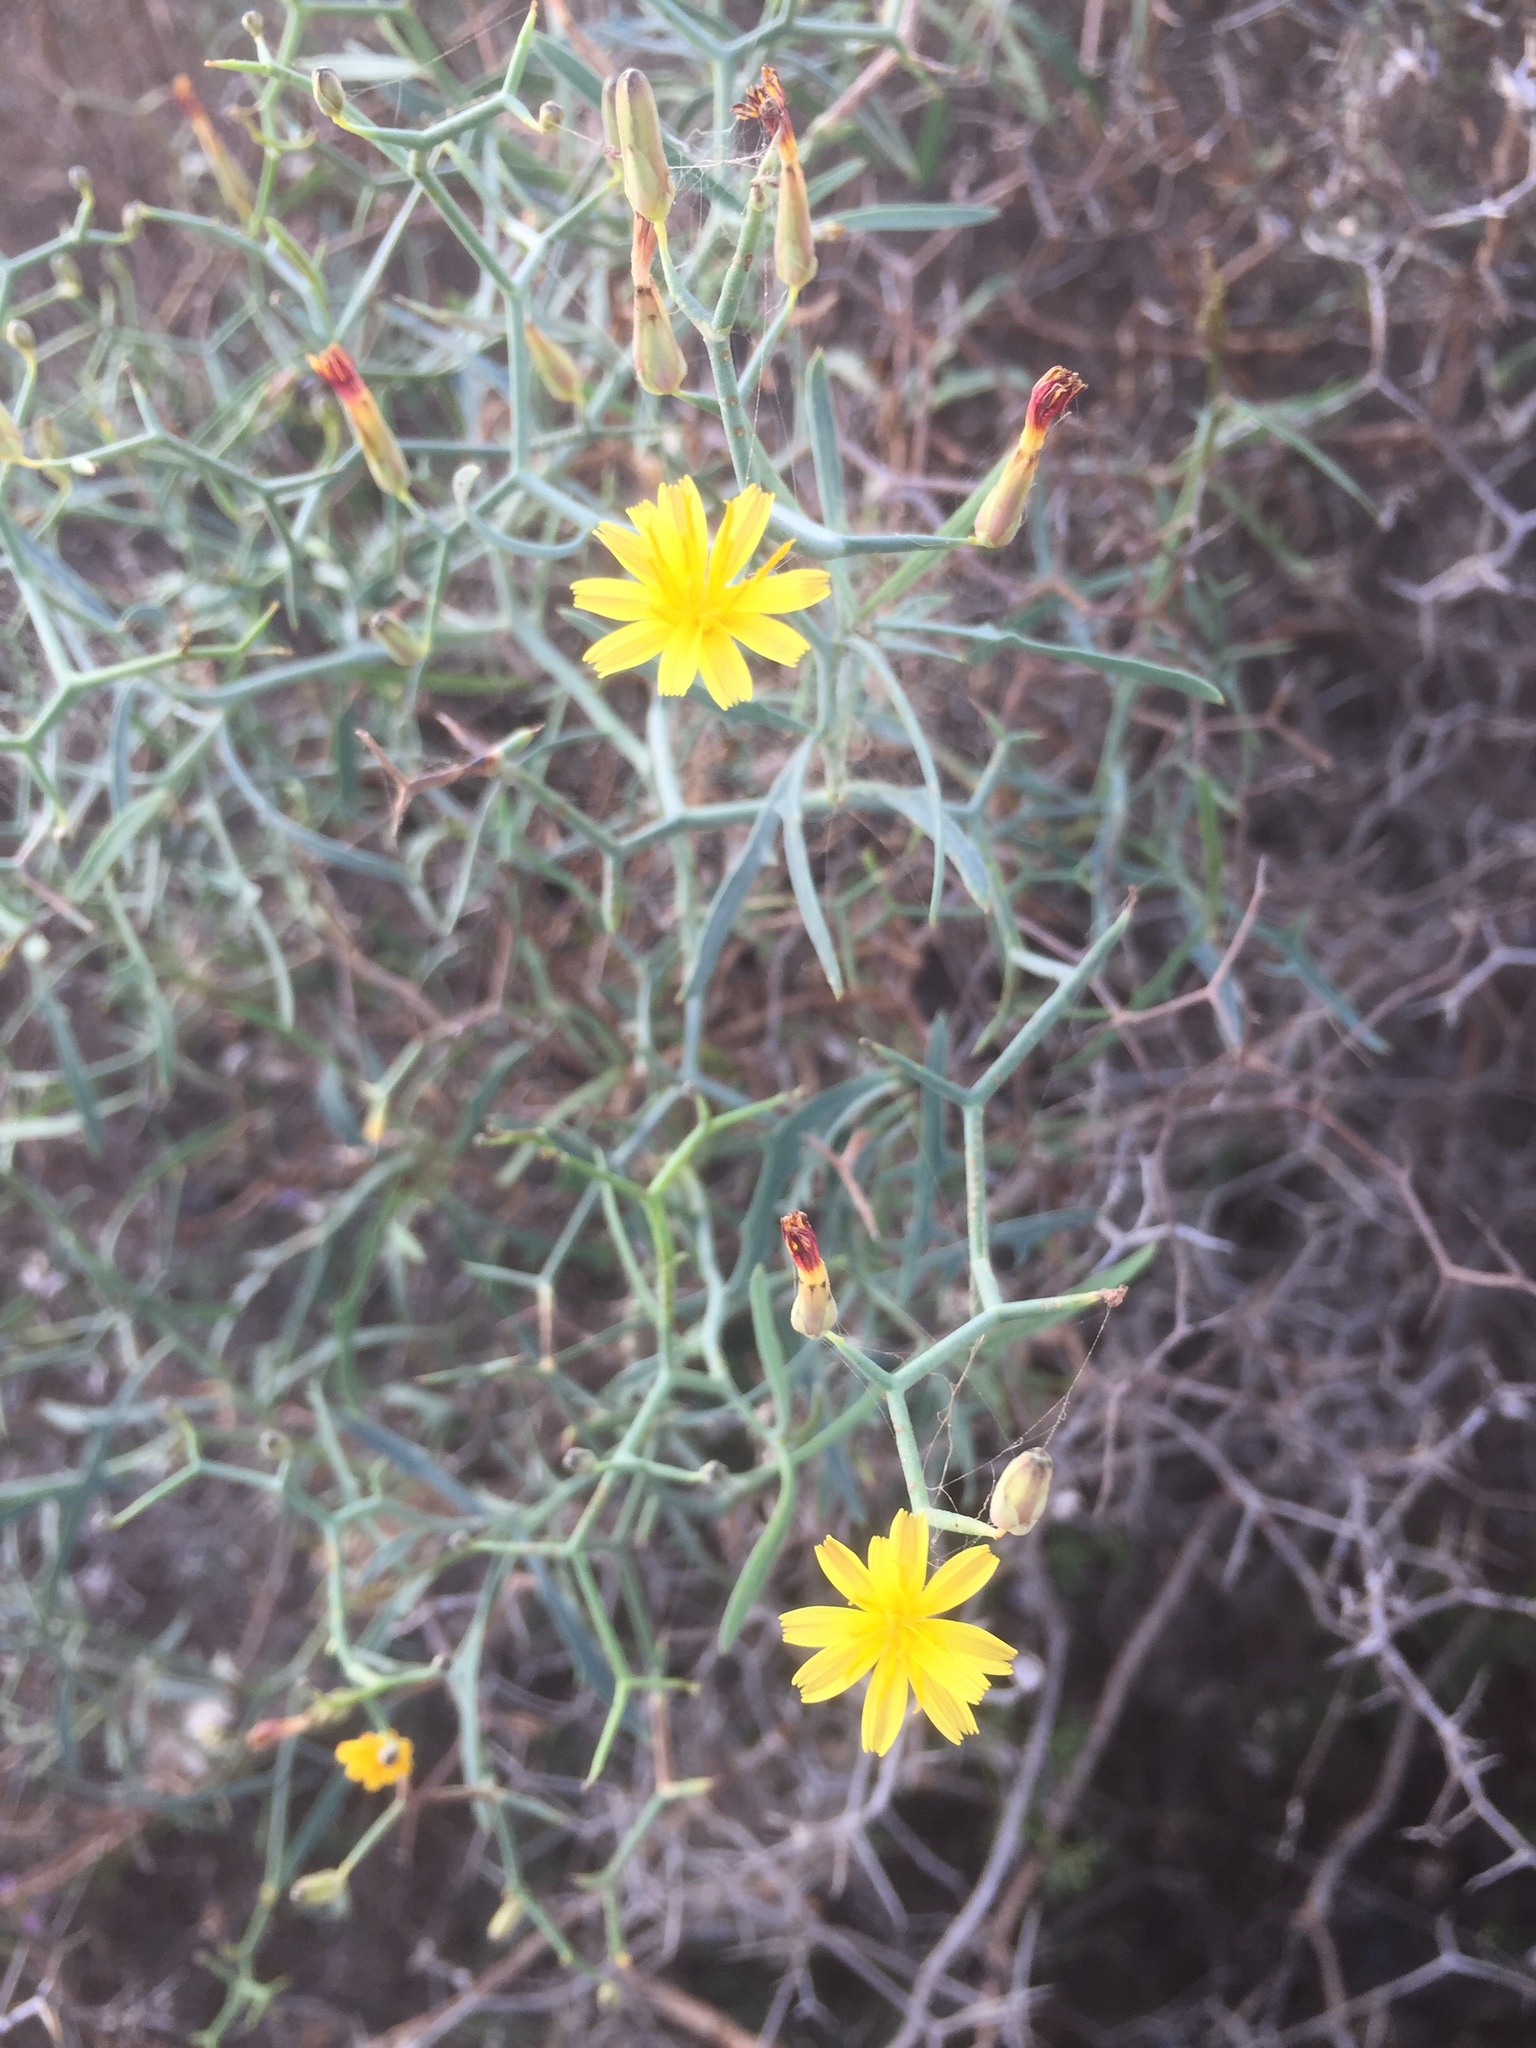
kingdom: Plantae
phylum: Tracheophyta
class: Magnoliopsida
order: Asterales
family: Asteraceae
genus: Launaea
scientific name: Launaea arborescens
